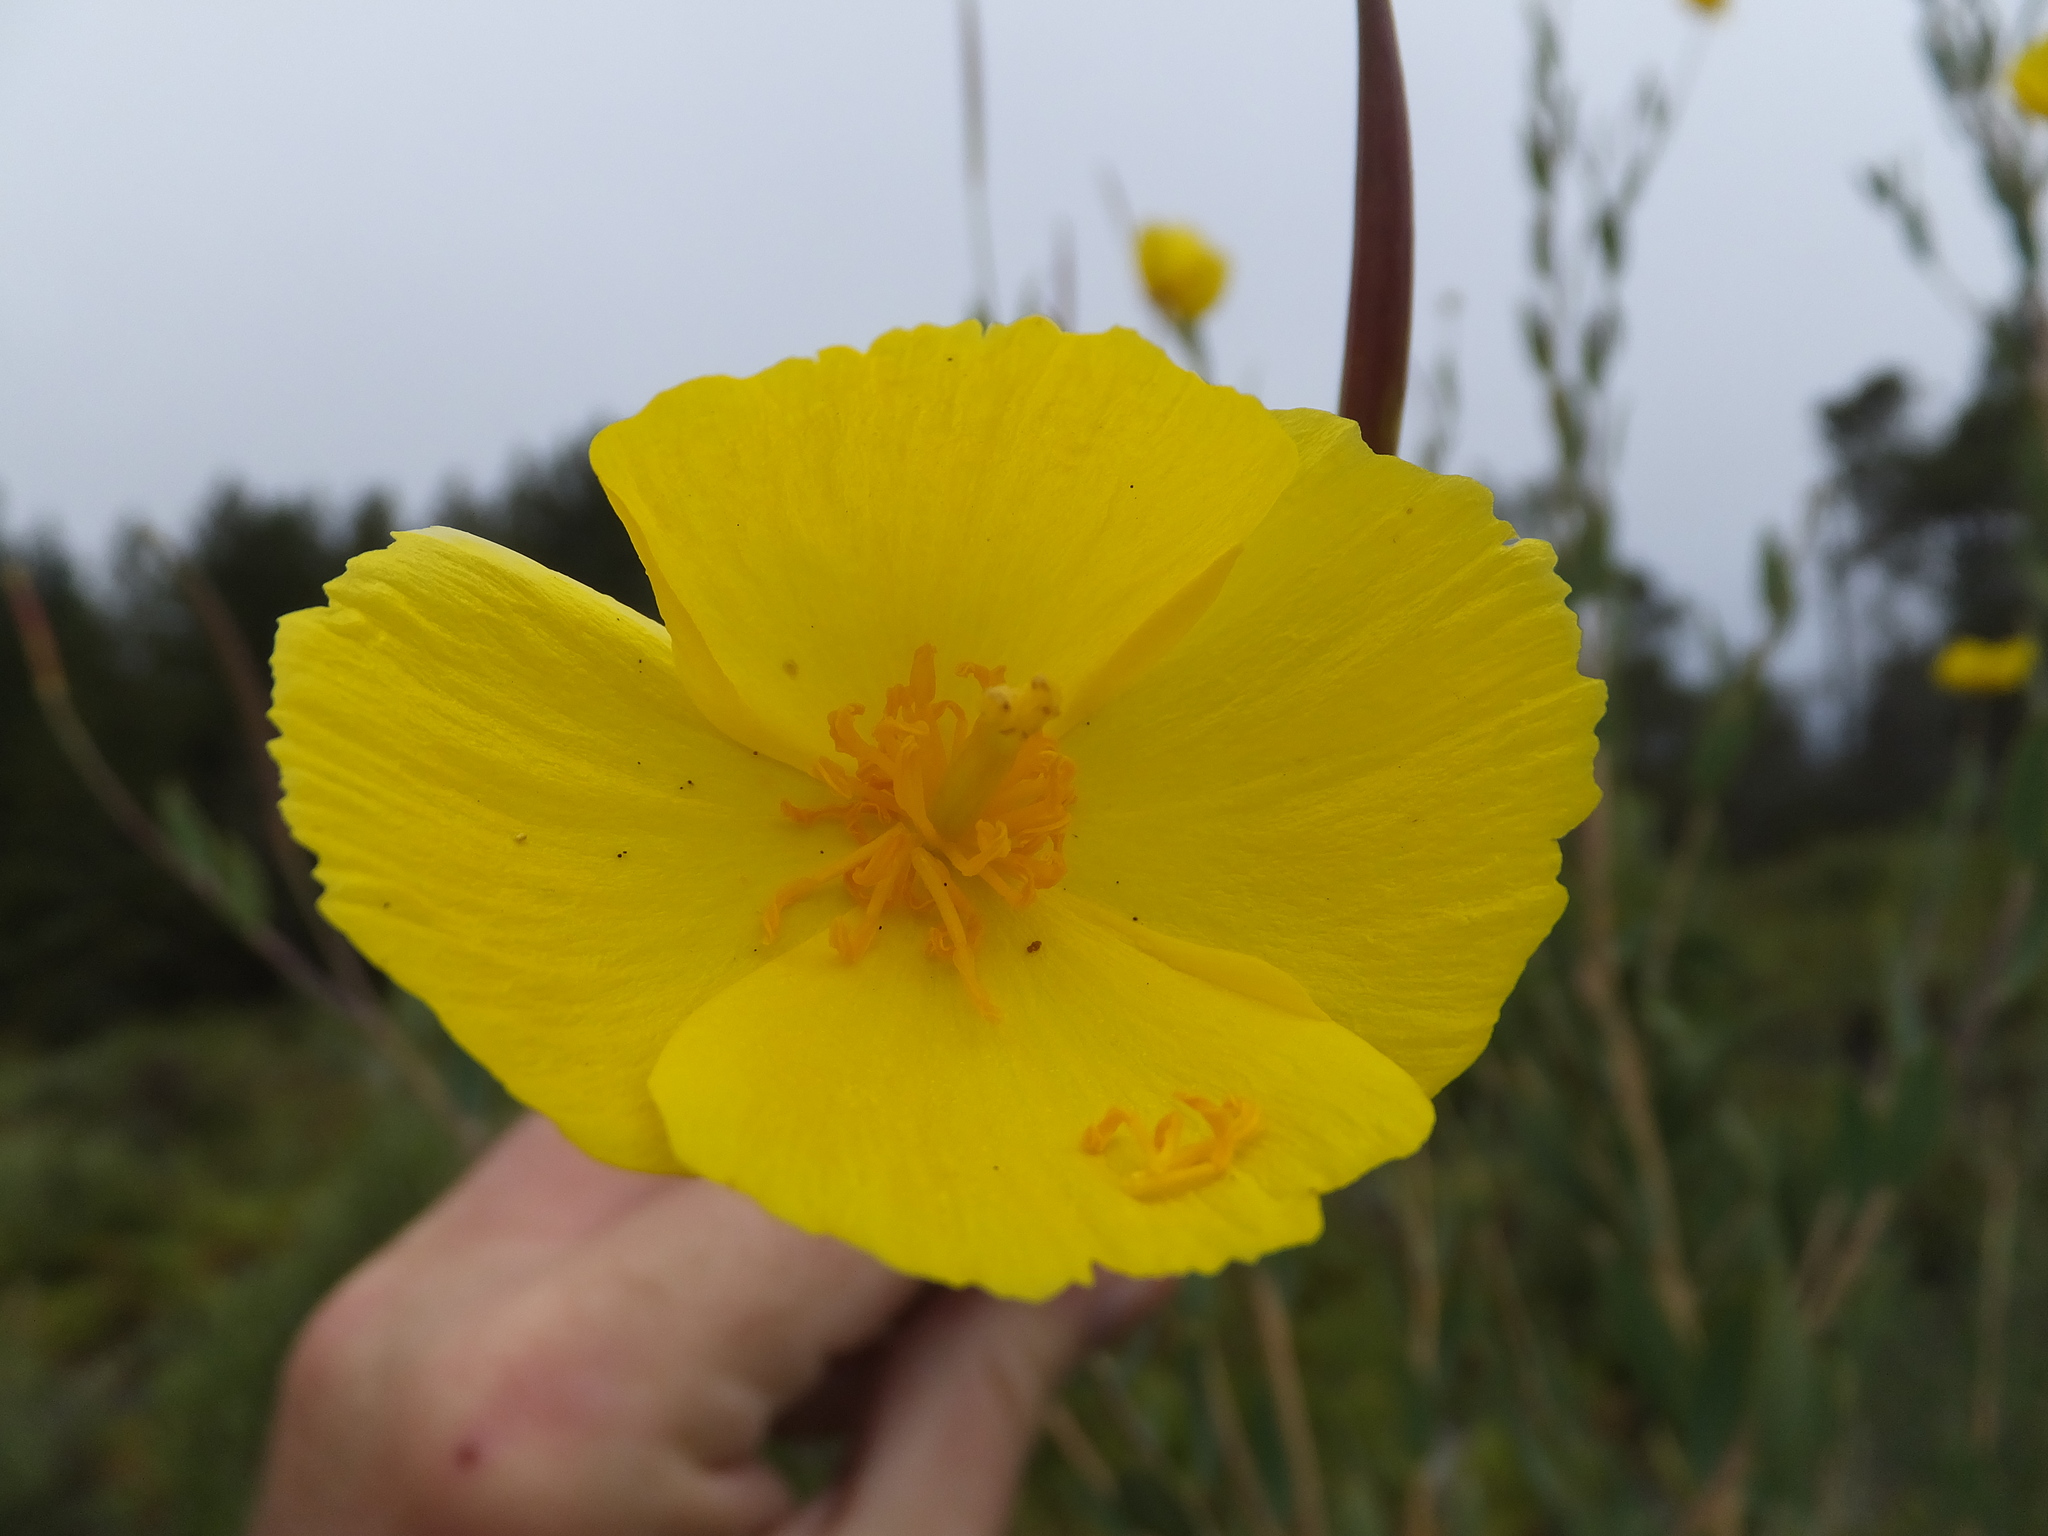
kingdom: Plantae
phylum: Tracheophyta
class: Magnoliopsida
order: Ranunculales
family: Papaveraceae
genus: Dendromecon
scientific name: Dendromecon rigida
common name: Tree poppy
